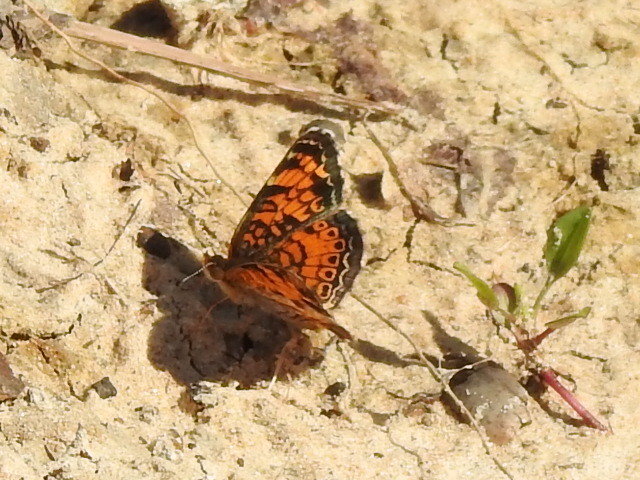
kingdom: Animalia
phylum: Arthropoda
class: Insecta
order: Lepidoptera
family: Nymphalidae
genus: Phyciodes
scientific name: Phyciodes tharos
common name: Pearl crescent
